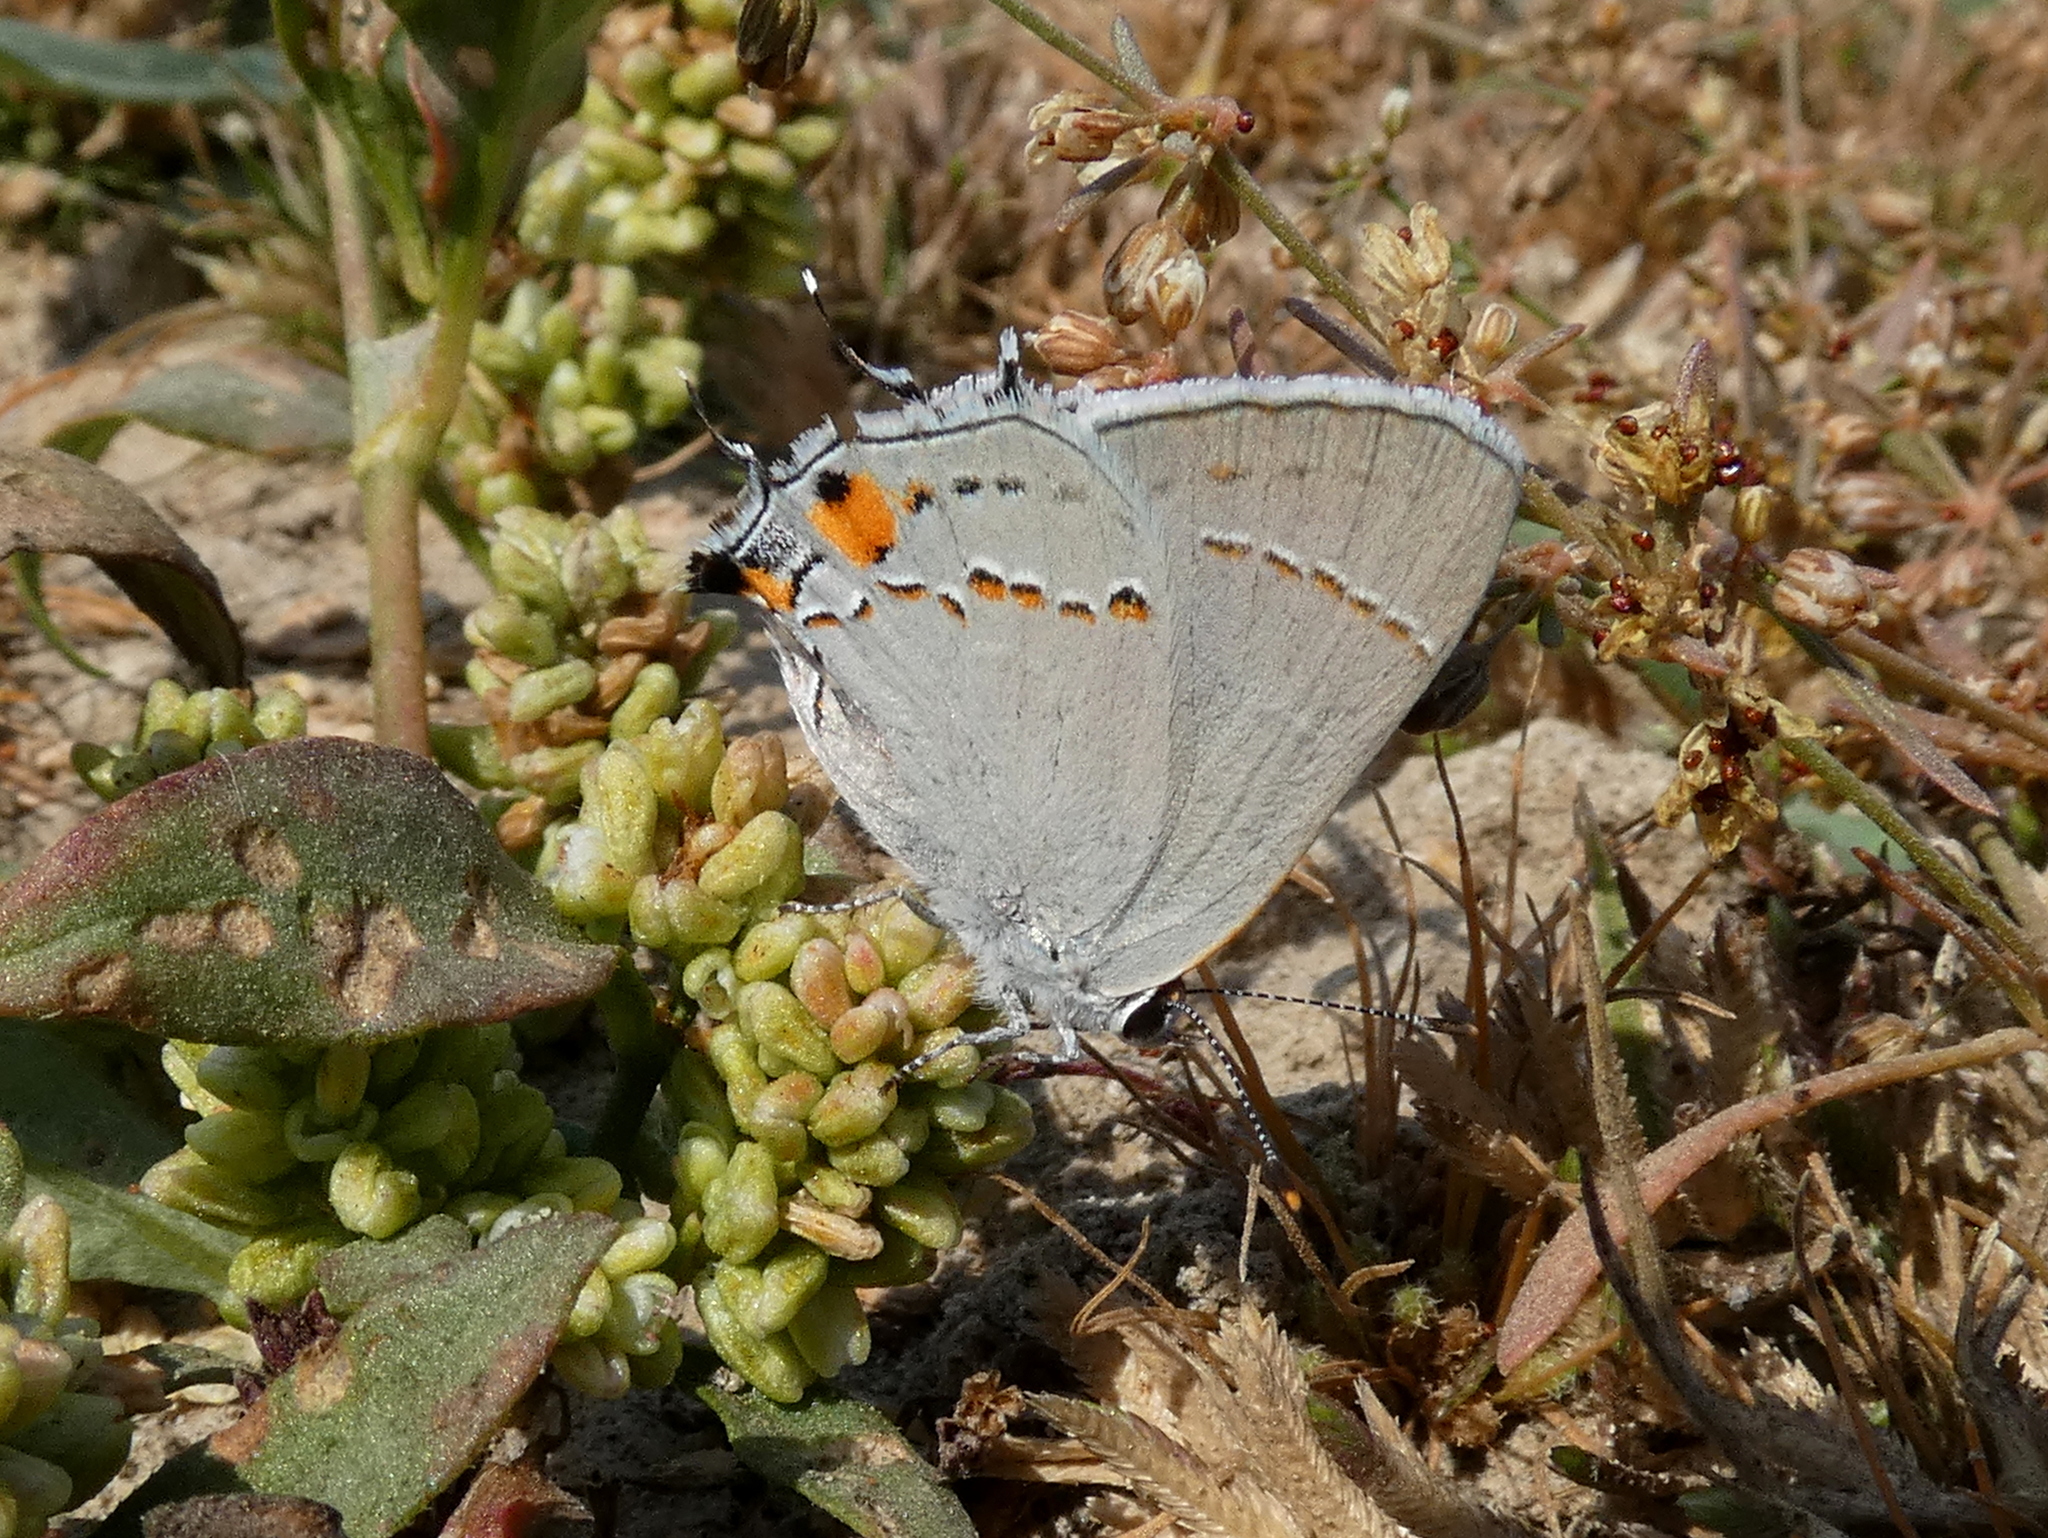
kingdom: Animalia
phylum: Arthropoda
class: Insecta
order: Lepidoptera
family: Lycaenidae
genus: Strymon
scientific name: Strymon melinus
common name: Gray hairstreak
